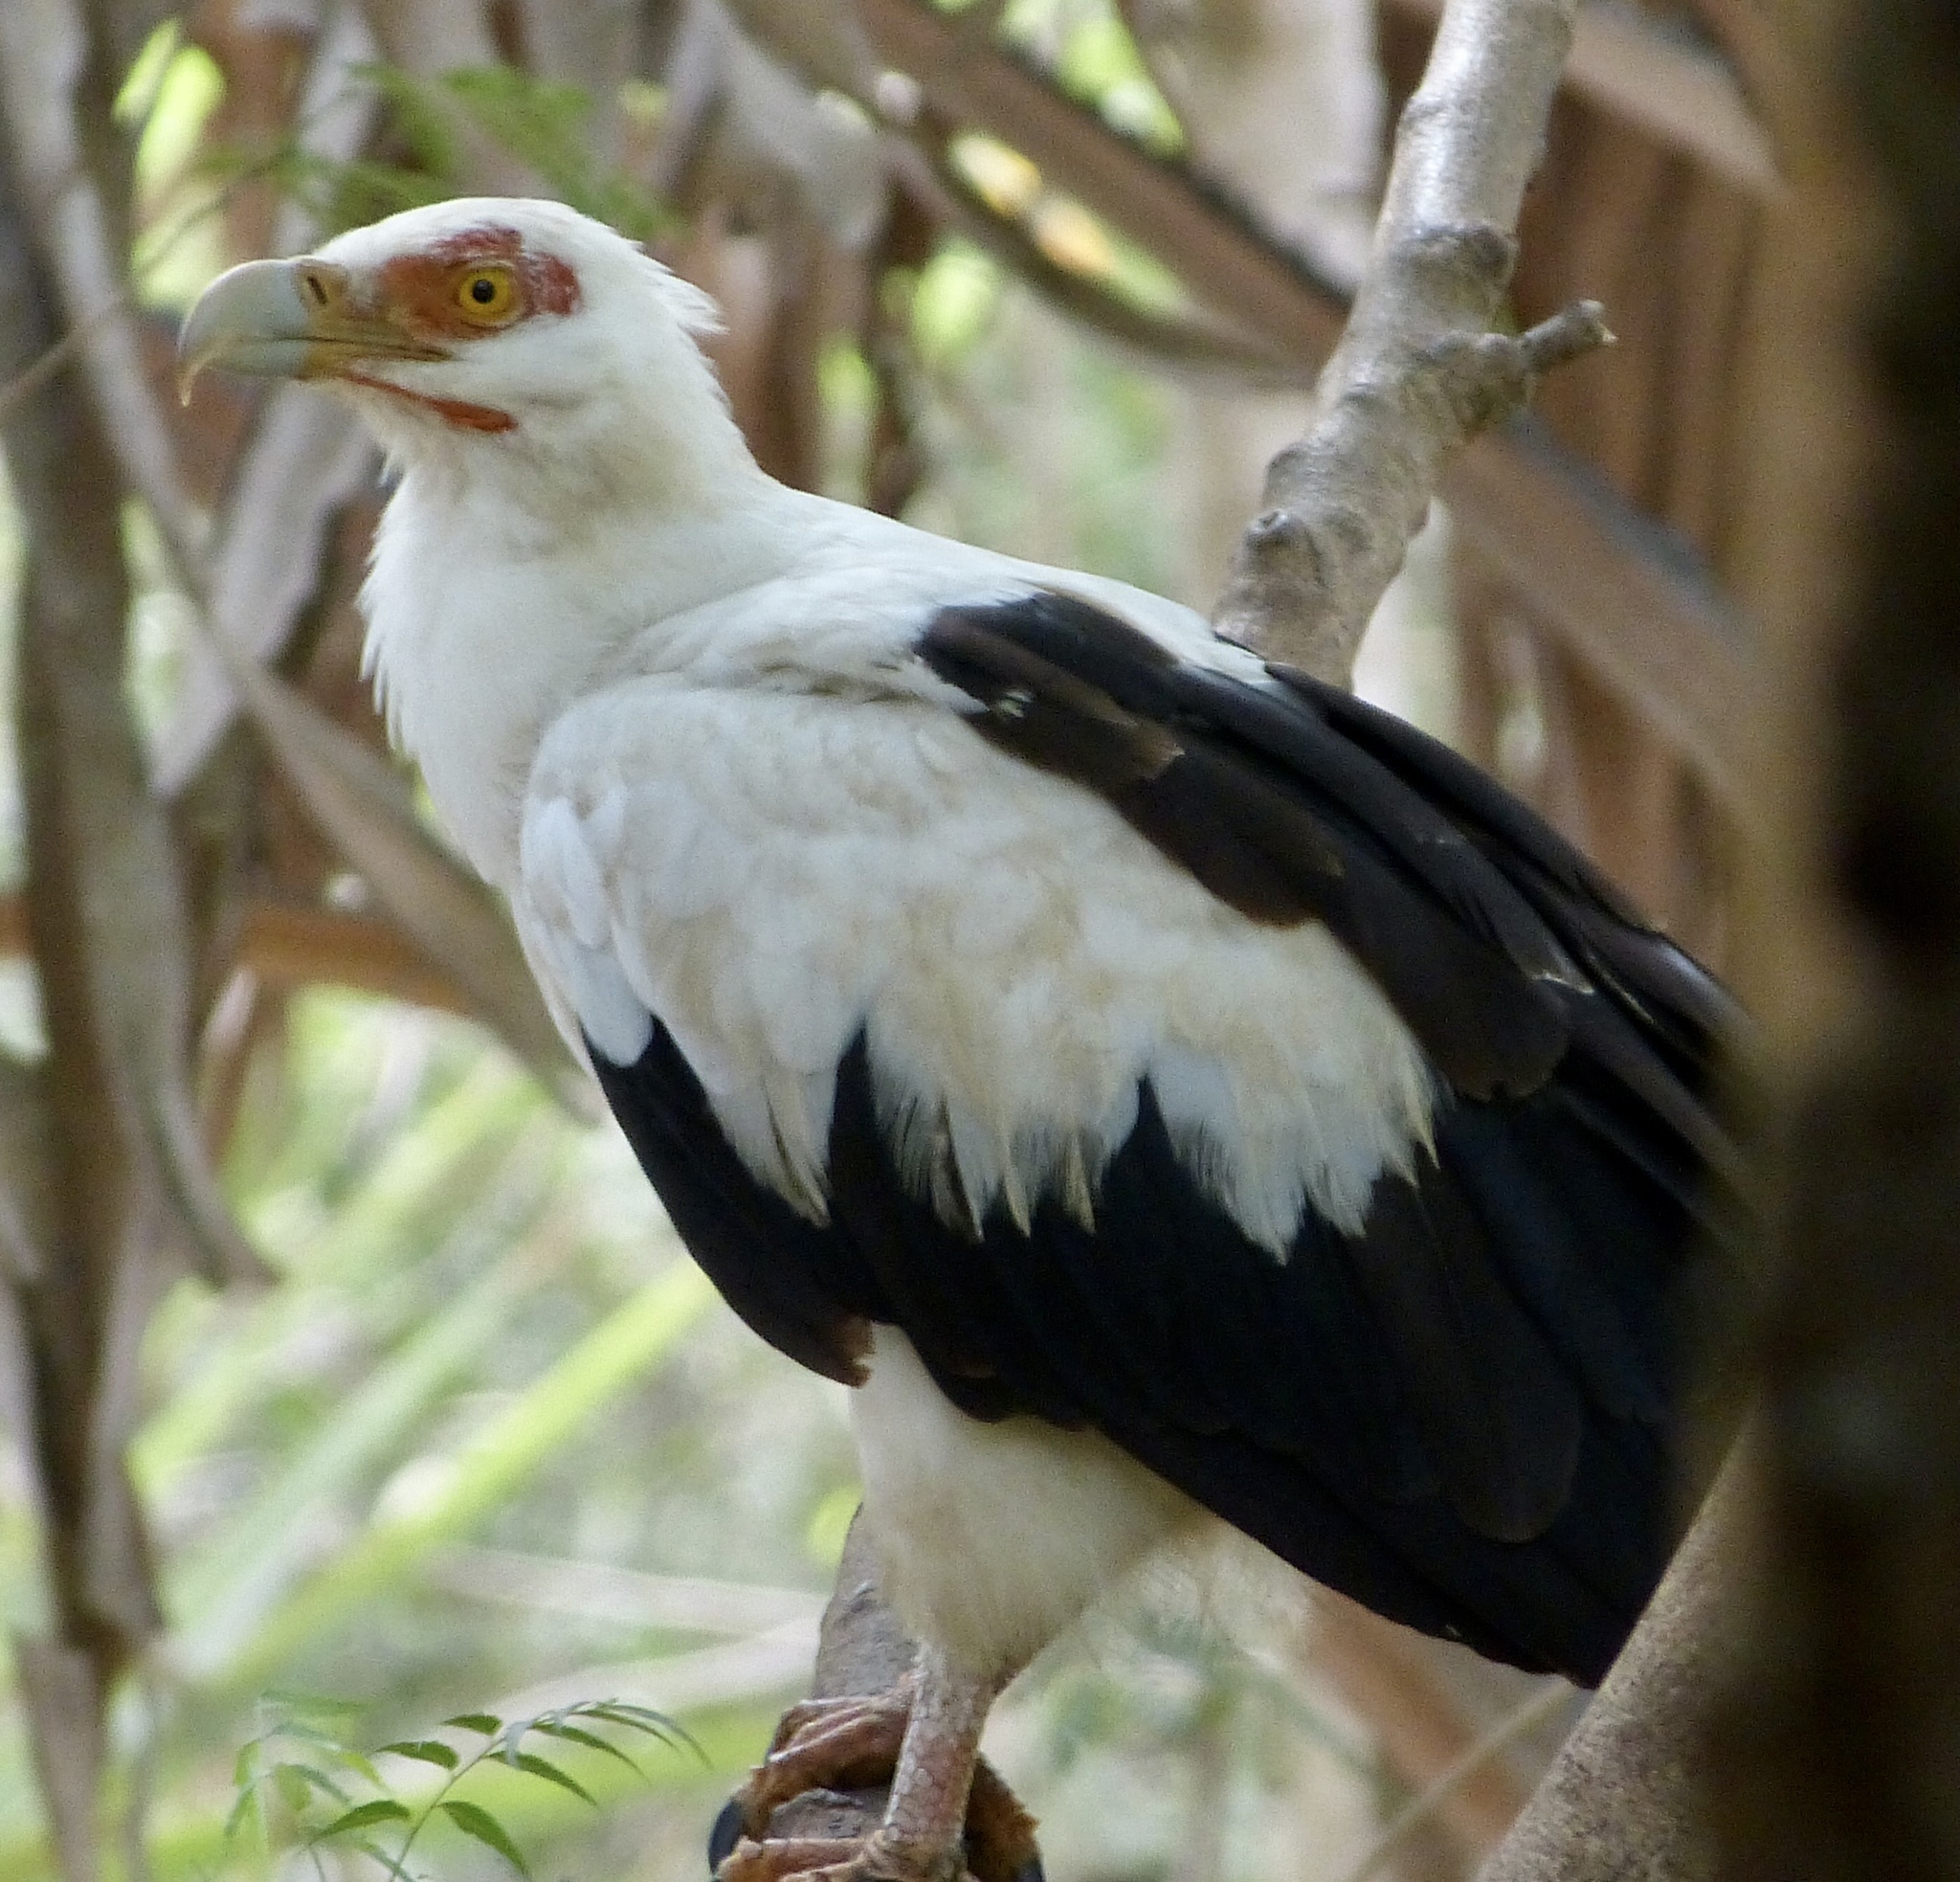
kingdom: Animalia
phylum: Chordata
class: Aves
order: Accipitriformes
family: Accipitridae
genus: Gypohierax
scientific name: Gypohierax angolensis
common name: Palm-nut vulture
